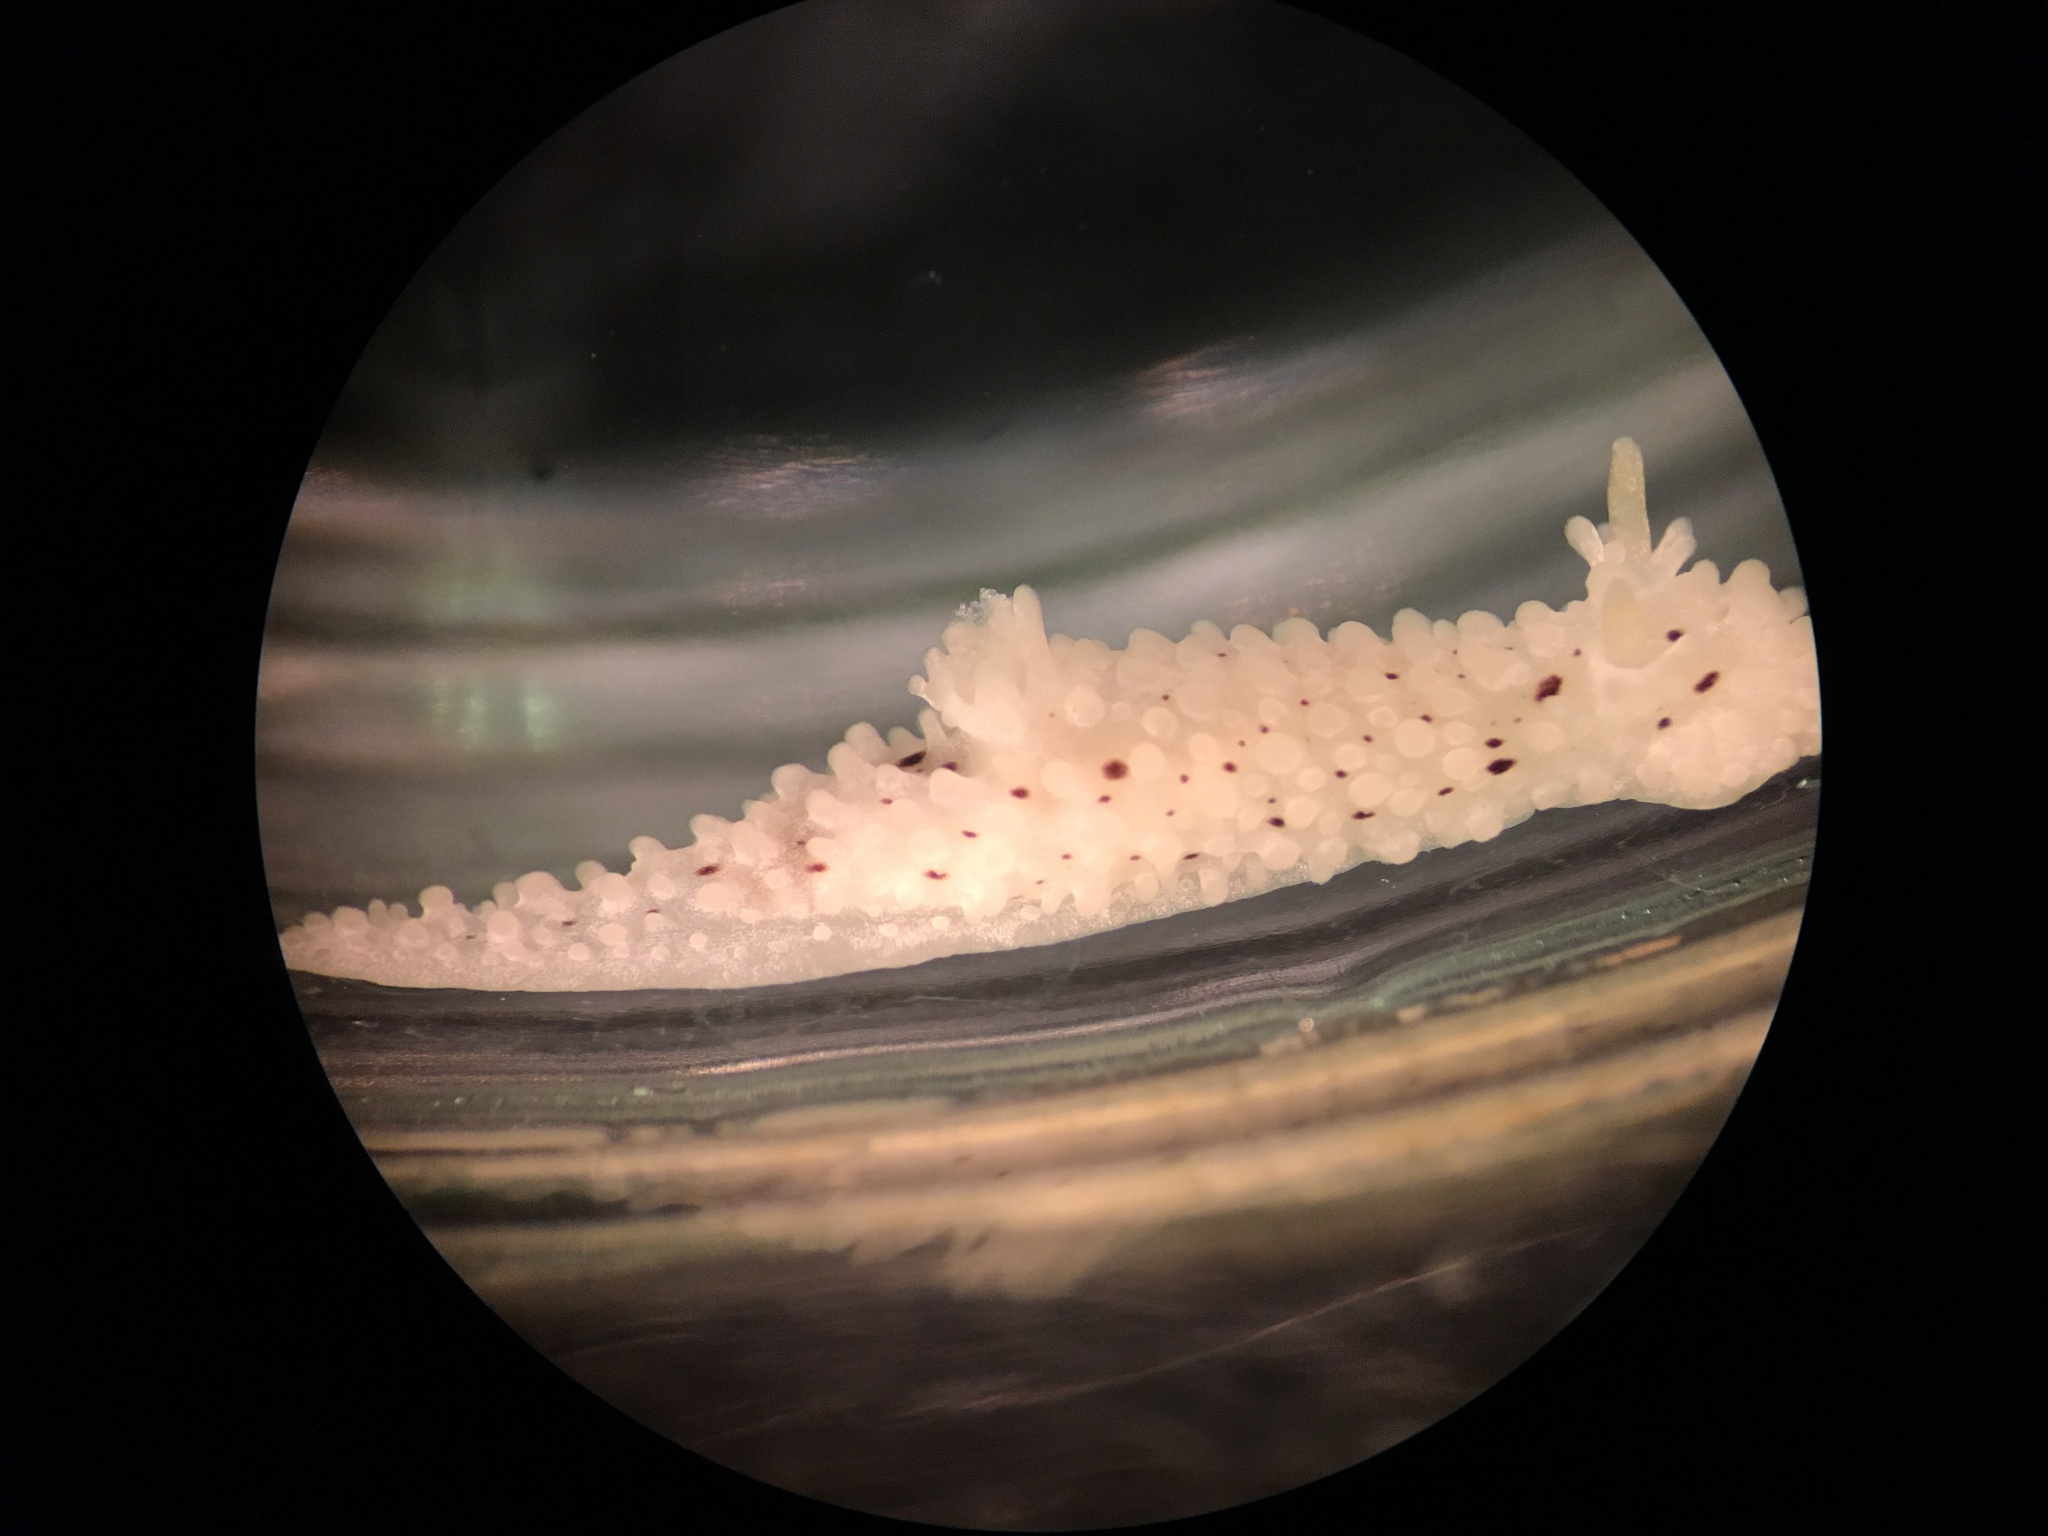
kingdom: Animalia
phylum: Mollusca
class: Gastropoda
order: Nudibranchia
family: Aegiridae
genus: Aegires
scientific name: Aegires albopunctatus
